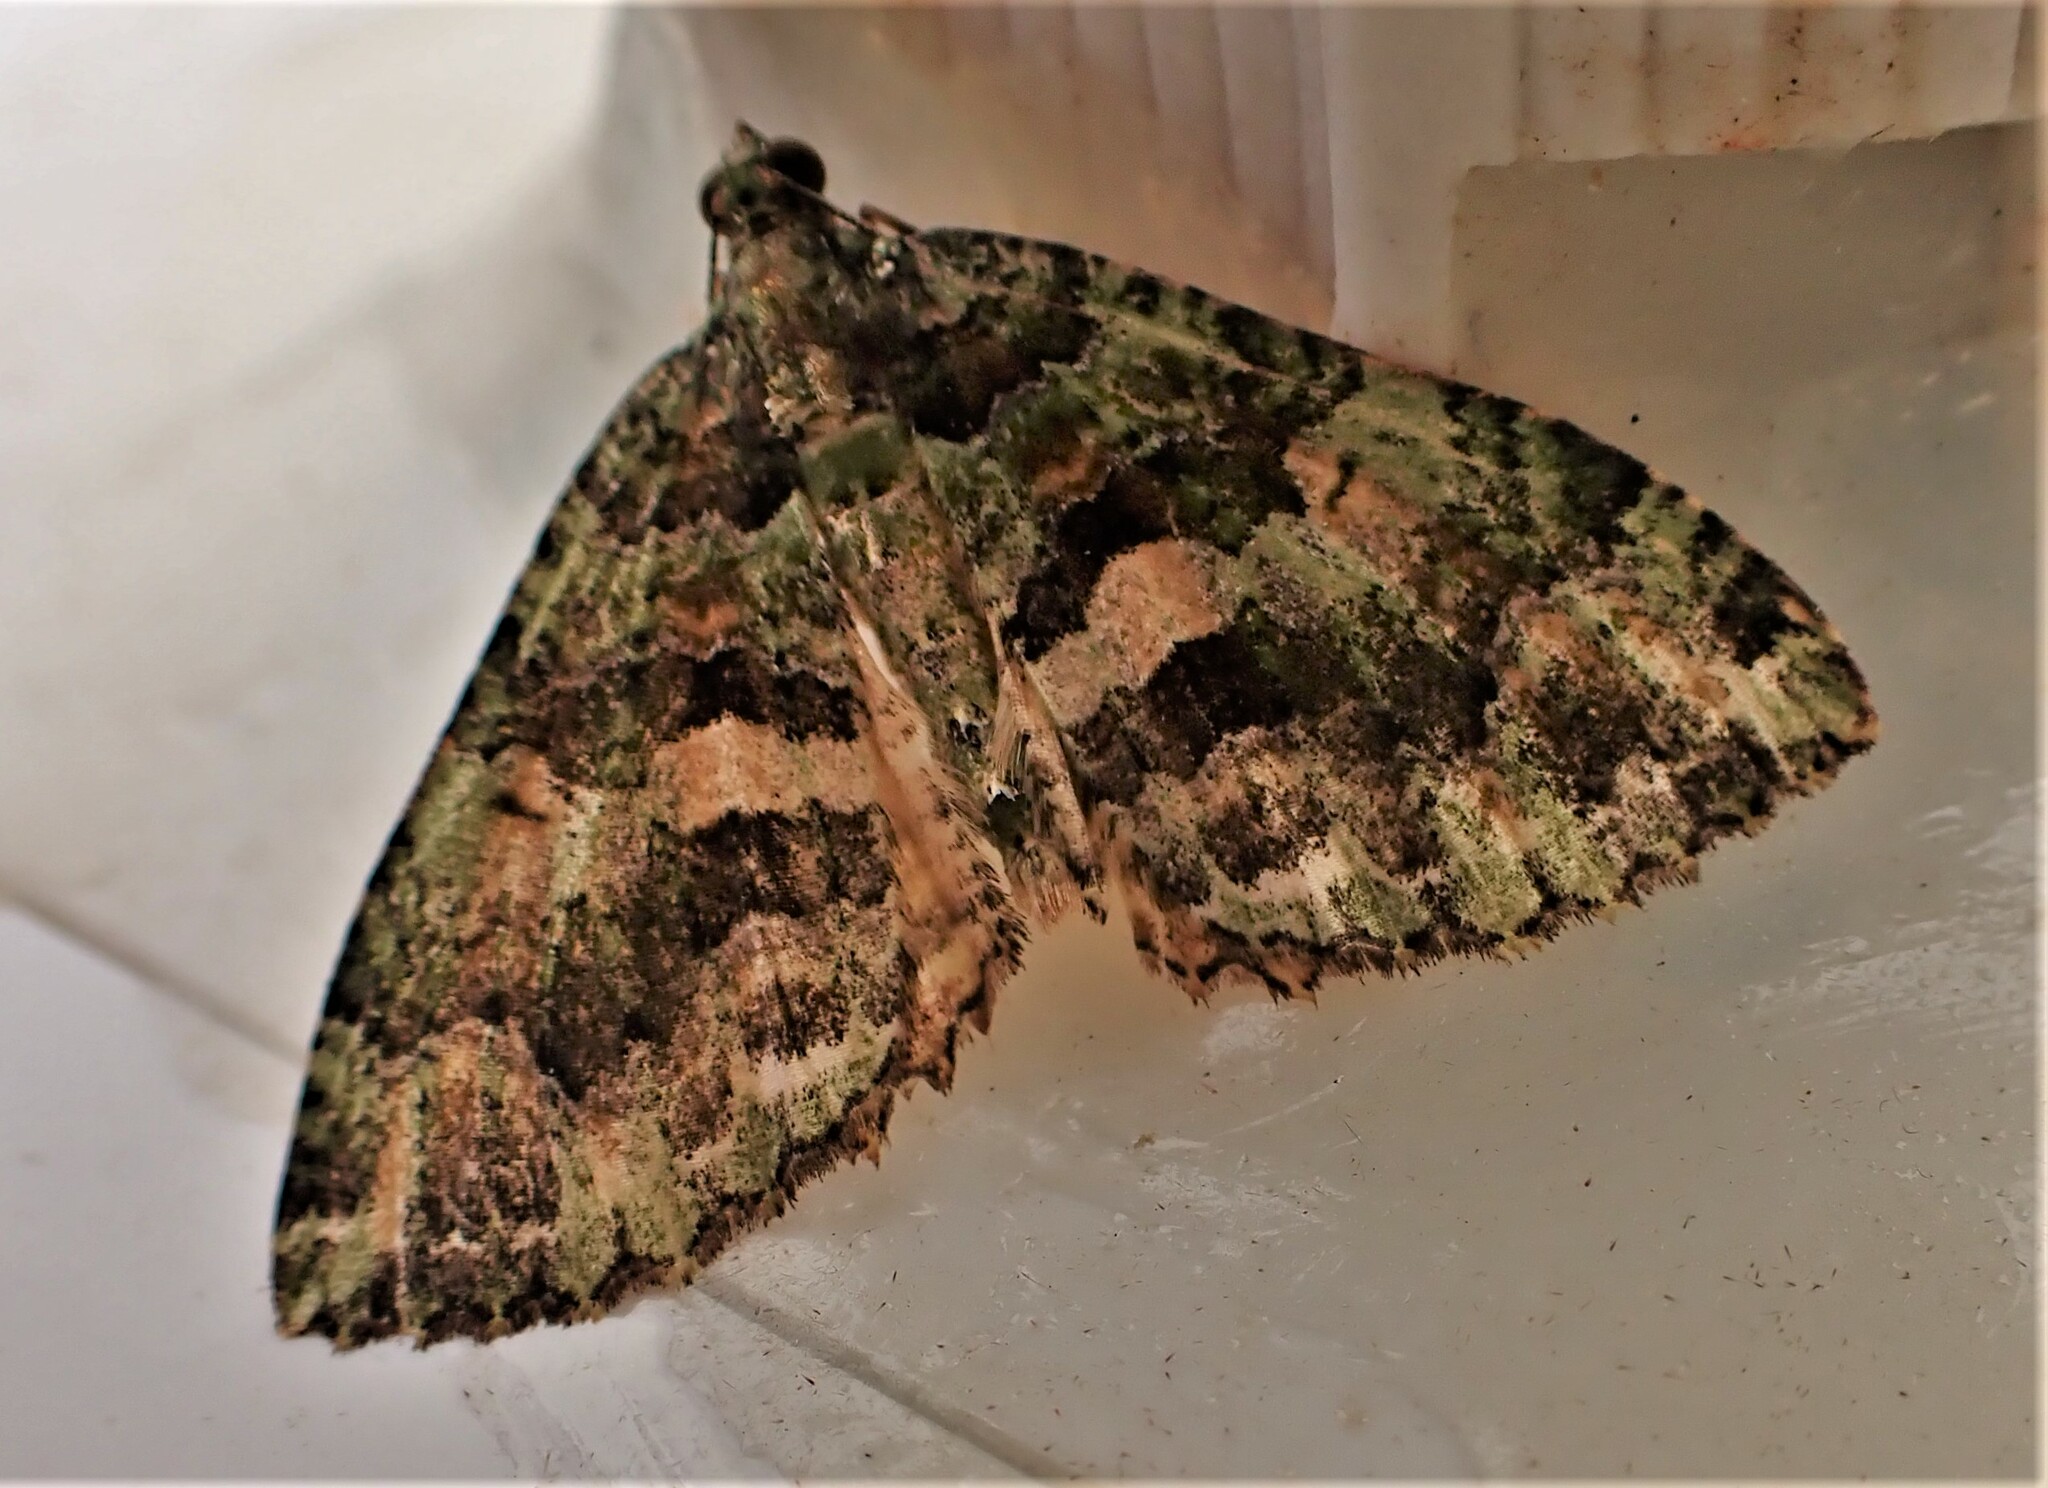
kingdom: Animalia
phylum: Arthropoda
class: Insecta
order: Lepidoptera
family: Geometridae
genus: Austrocidaria
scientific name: Austrocidaria similata
